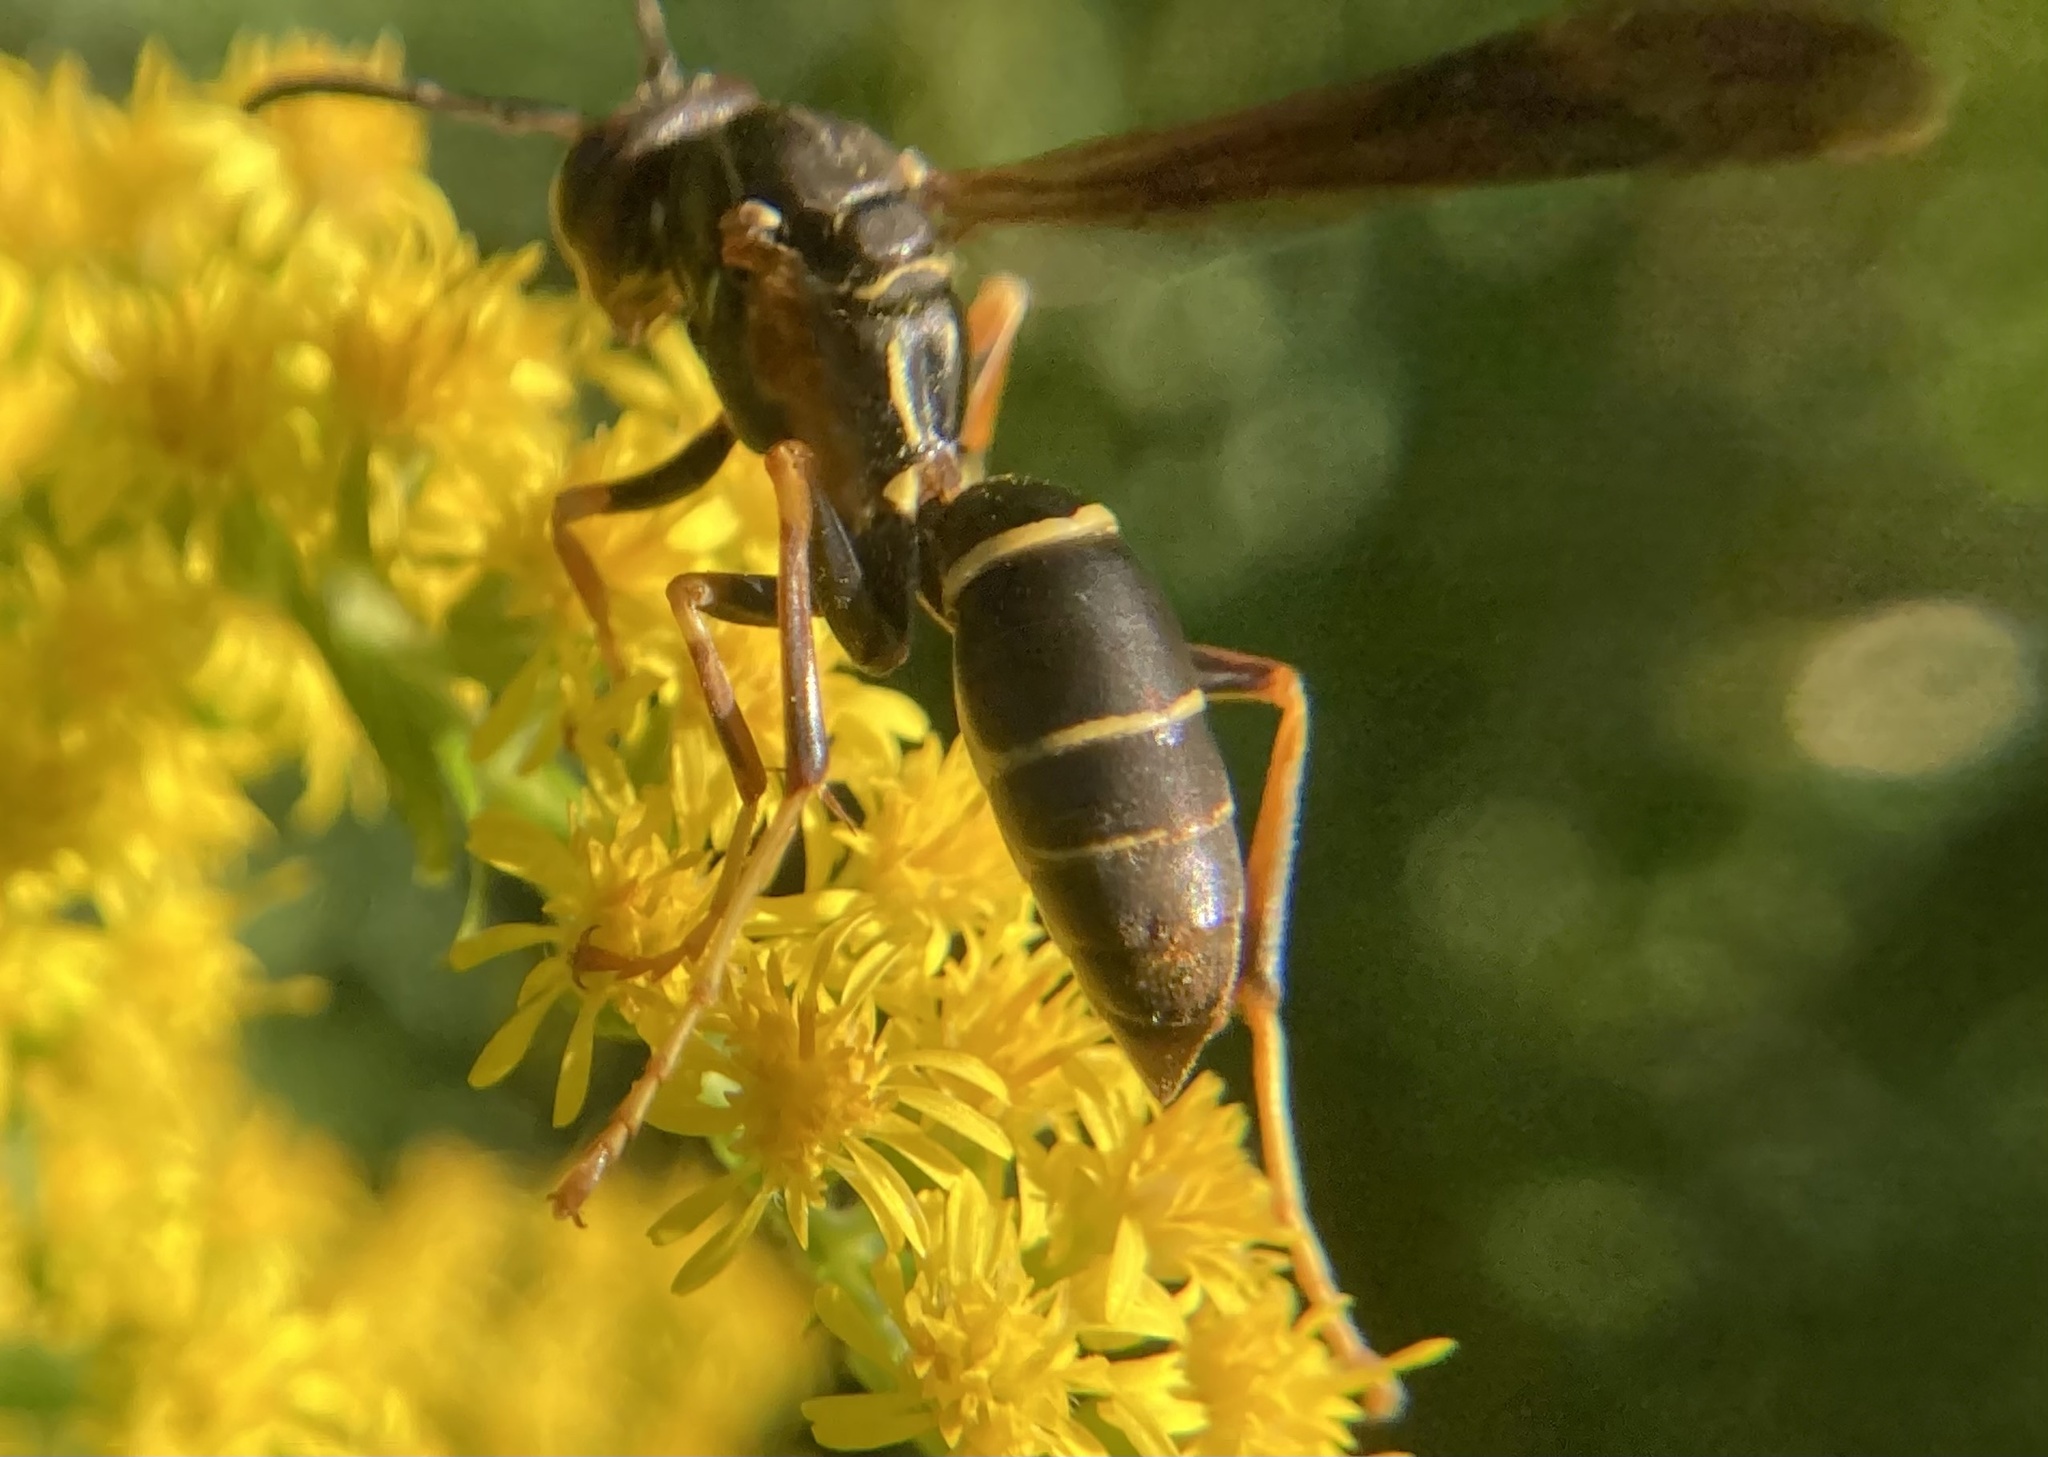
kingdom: Animalia
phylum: Arthropoda
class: Insecta
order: Hymenoptera
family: Eumenidae
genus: Polistes
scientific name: Polistes fuscatus
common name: Dark paper wasp
